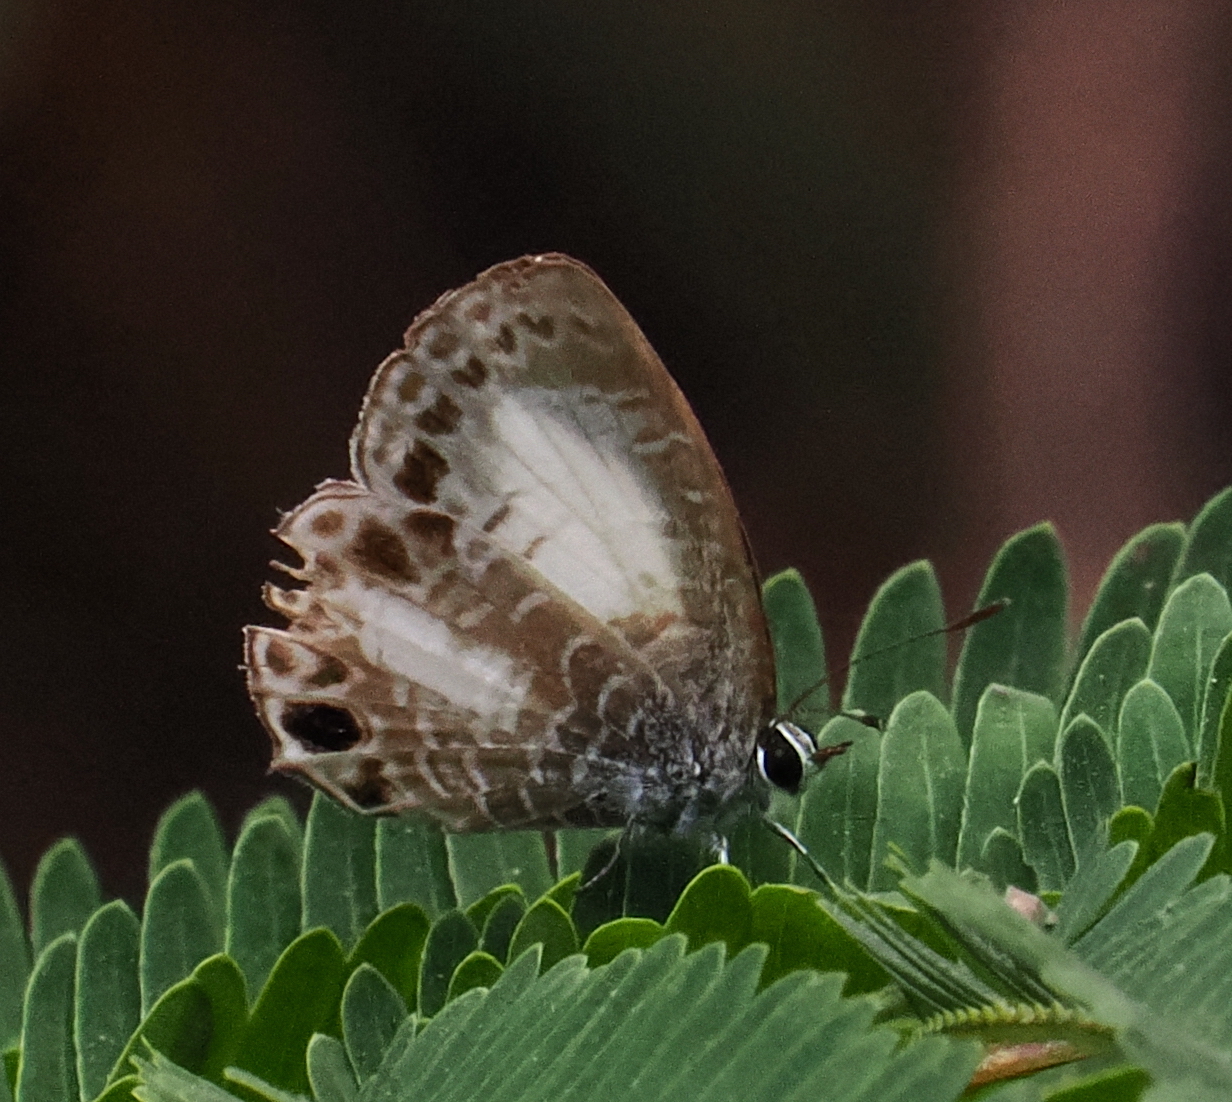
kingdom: Animalia
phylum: Arthropoda
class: Insecta
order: Lepidoptera
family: Lycaenidae
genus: Nacaduba
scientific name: Nacaduba kurava
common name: Transparent 6-line blue
